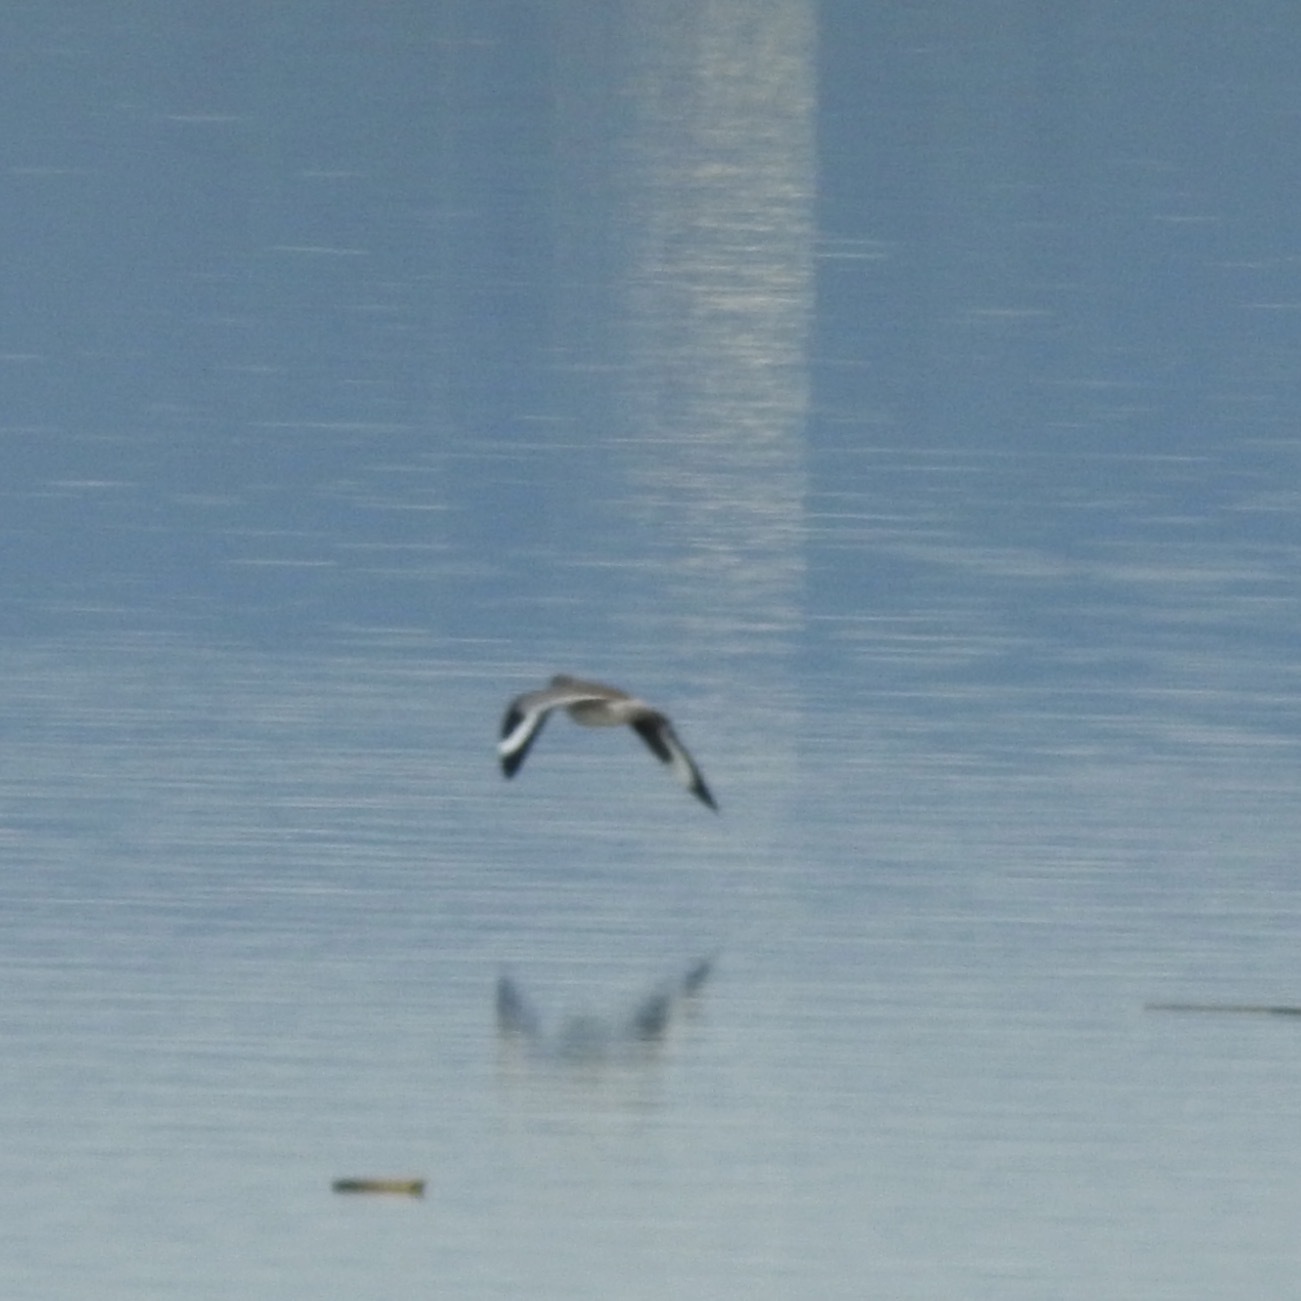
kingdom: Animalia
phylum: Chordata
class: Aves
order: Charadriiformes
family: Scolopacidae
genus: Tringa
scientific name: Tringa semipalmata
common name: Willet
